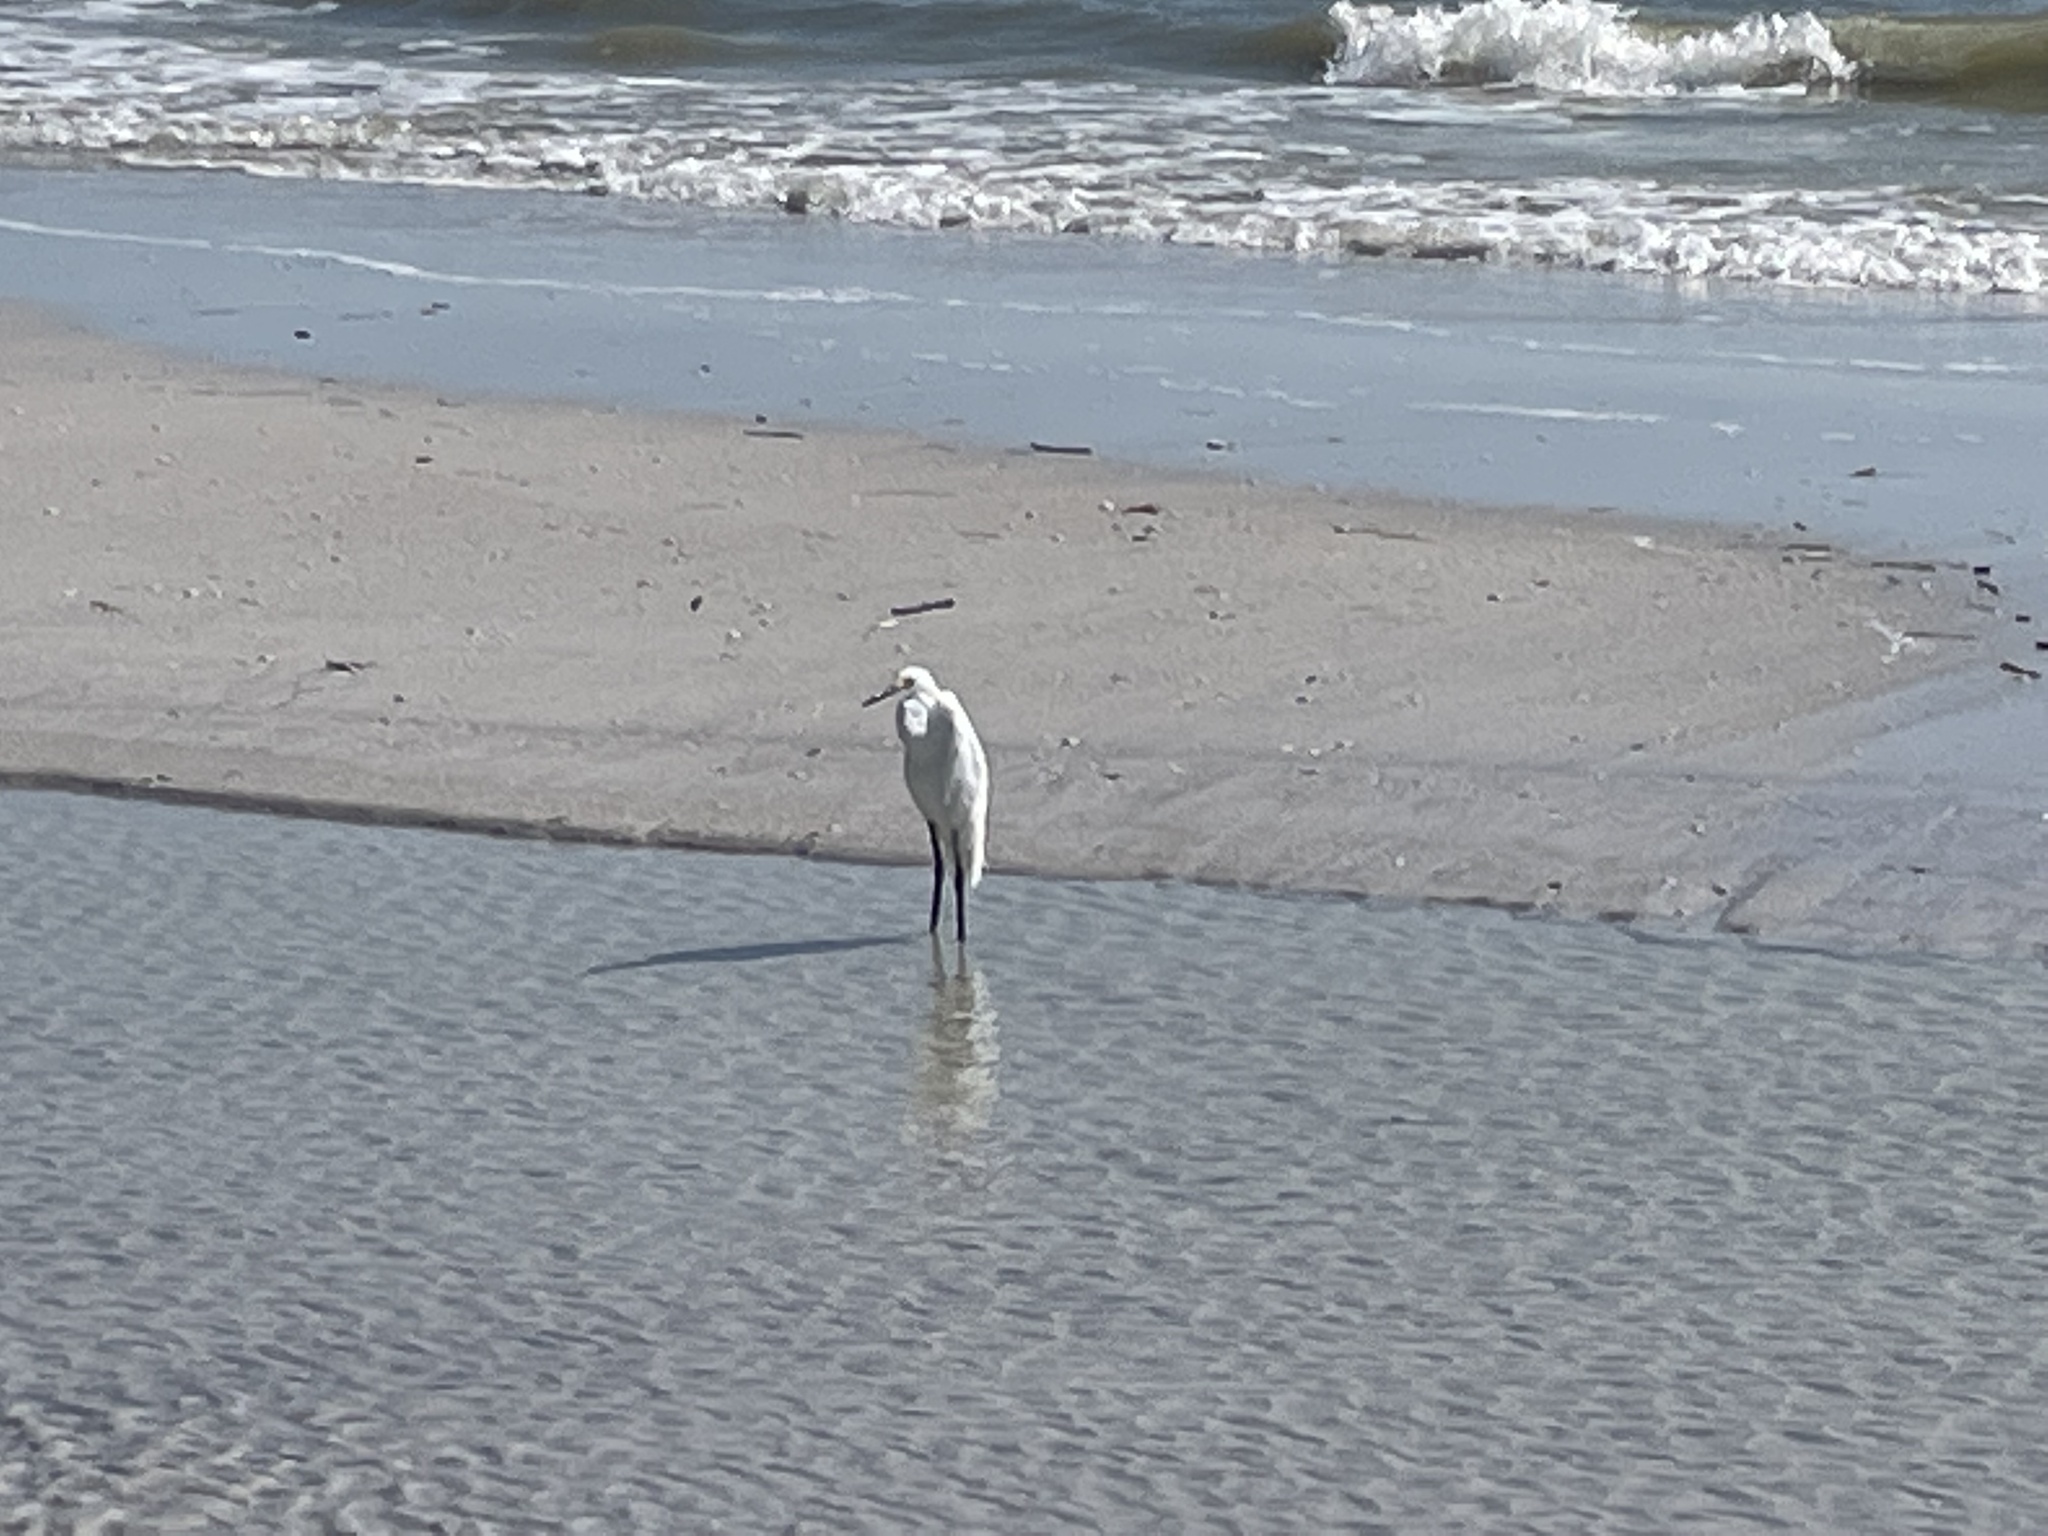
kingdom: Animalia
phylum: Chordata
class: Aves
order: Pelecaniformes
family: Ardeidae
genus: Egretta
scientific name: Egretta thula
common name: Snowy egret
